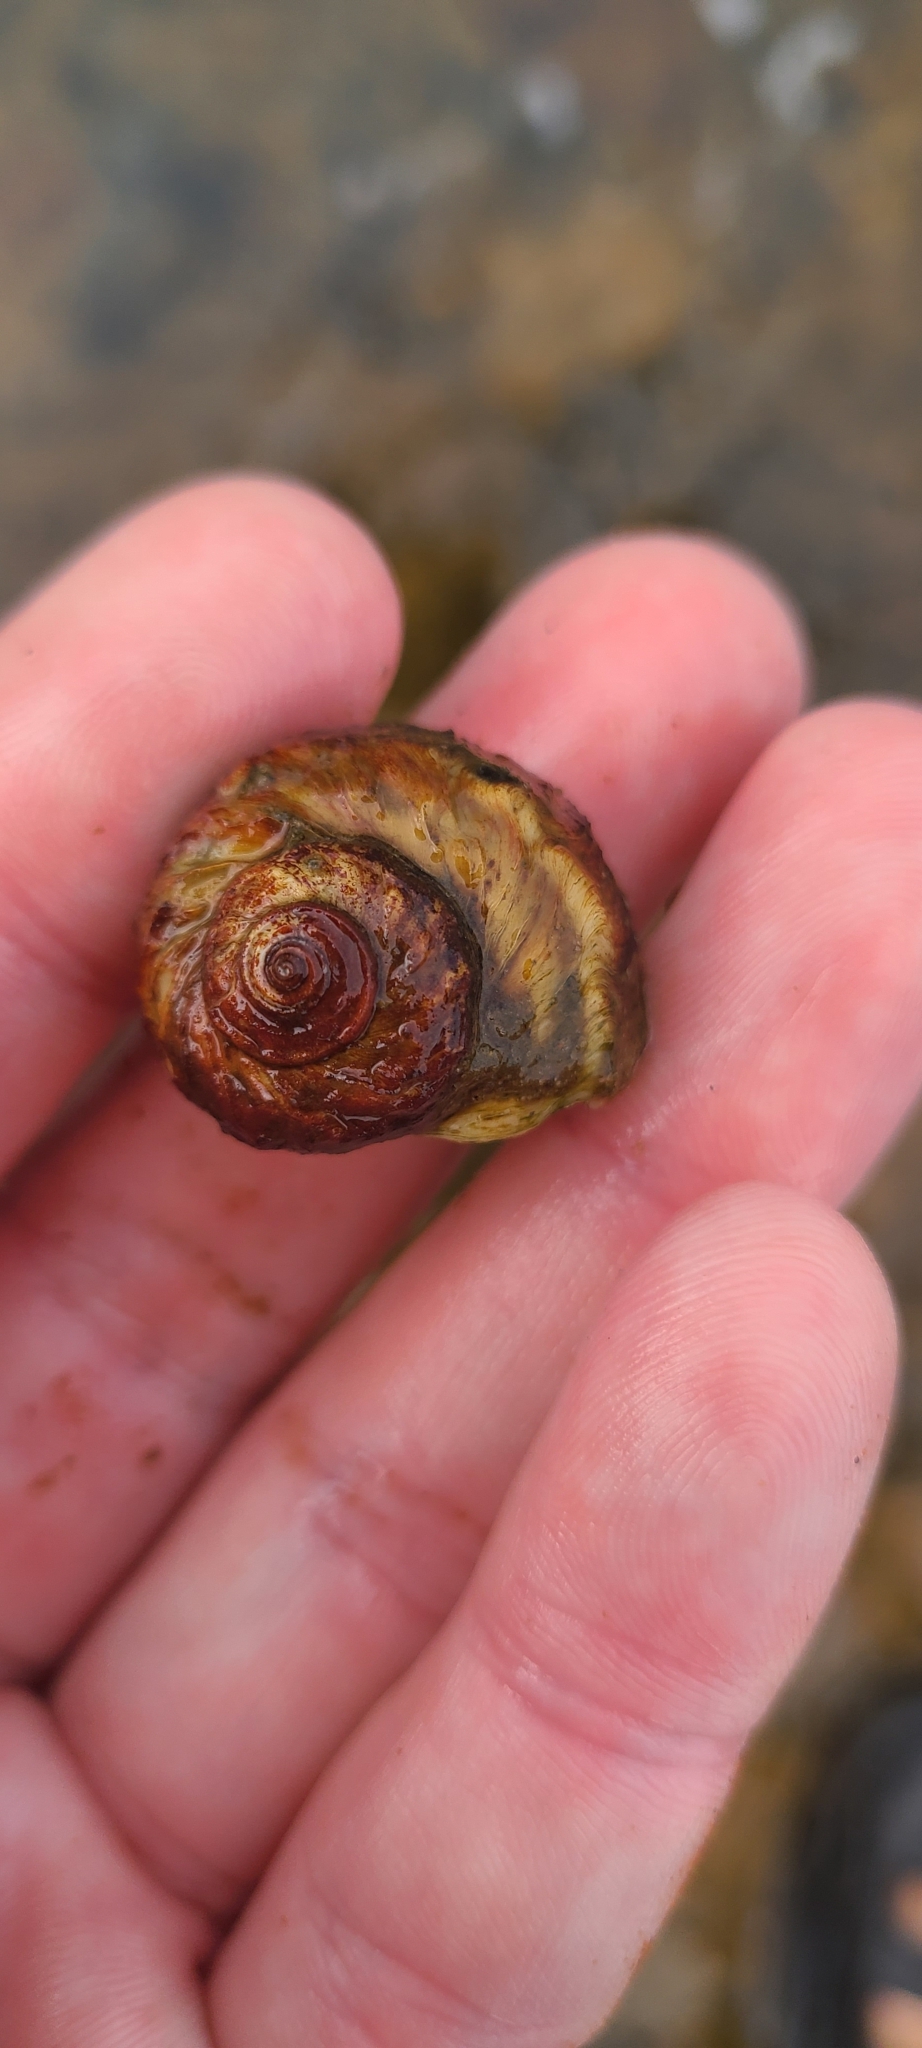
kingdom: Animalia
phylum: Mollusca
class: Gastropoda
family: Amphibolidae
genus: Amphibola
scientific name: Amphibola crenata
